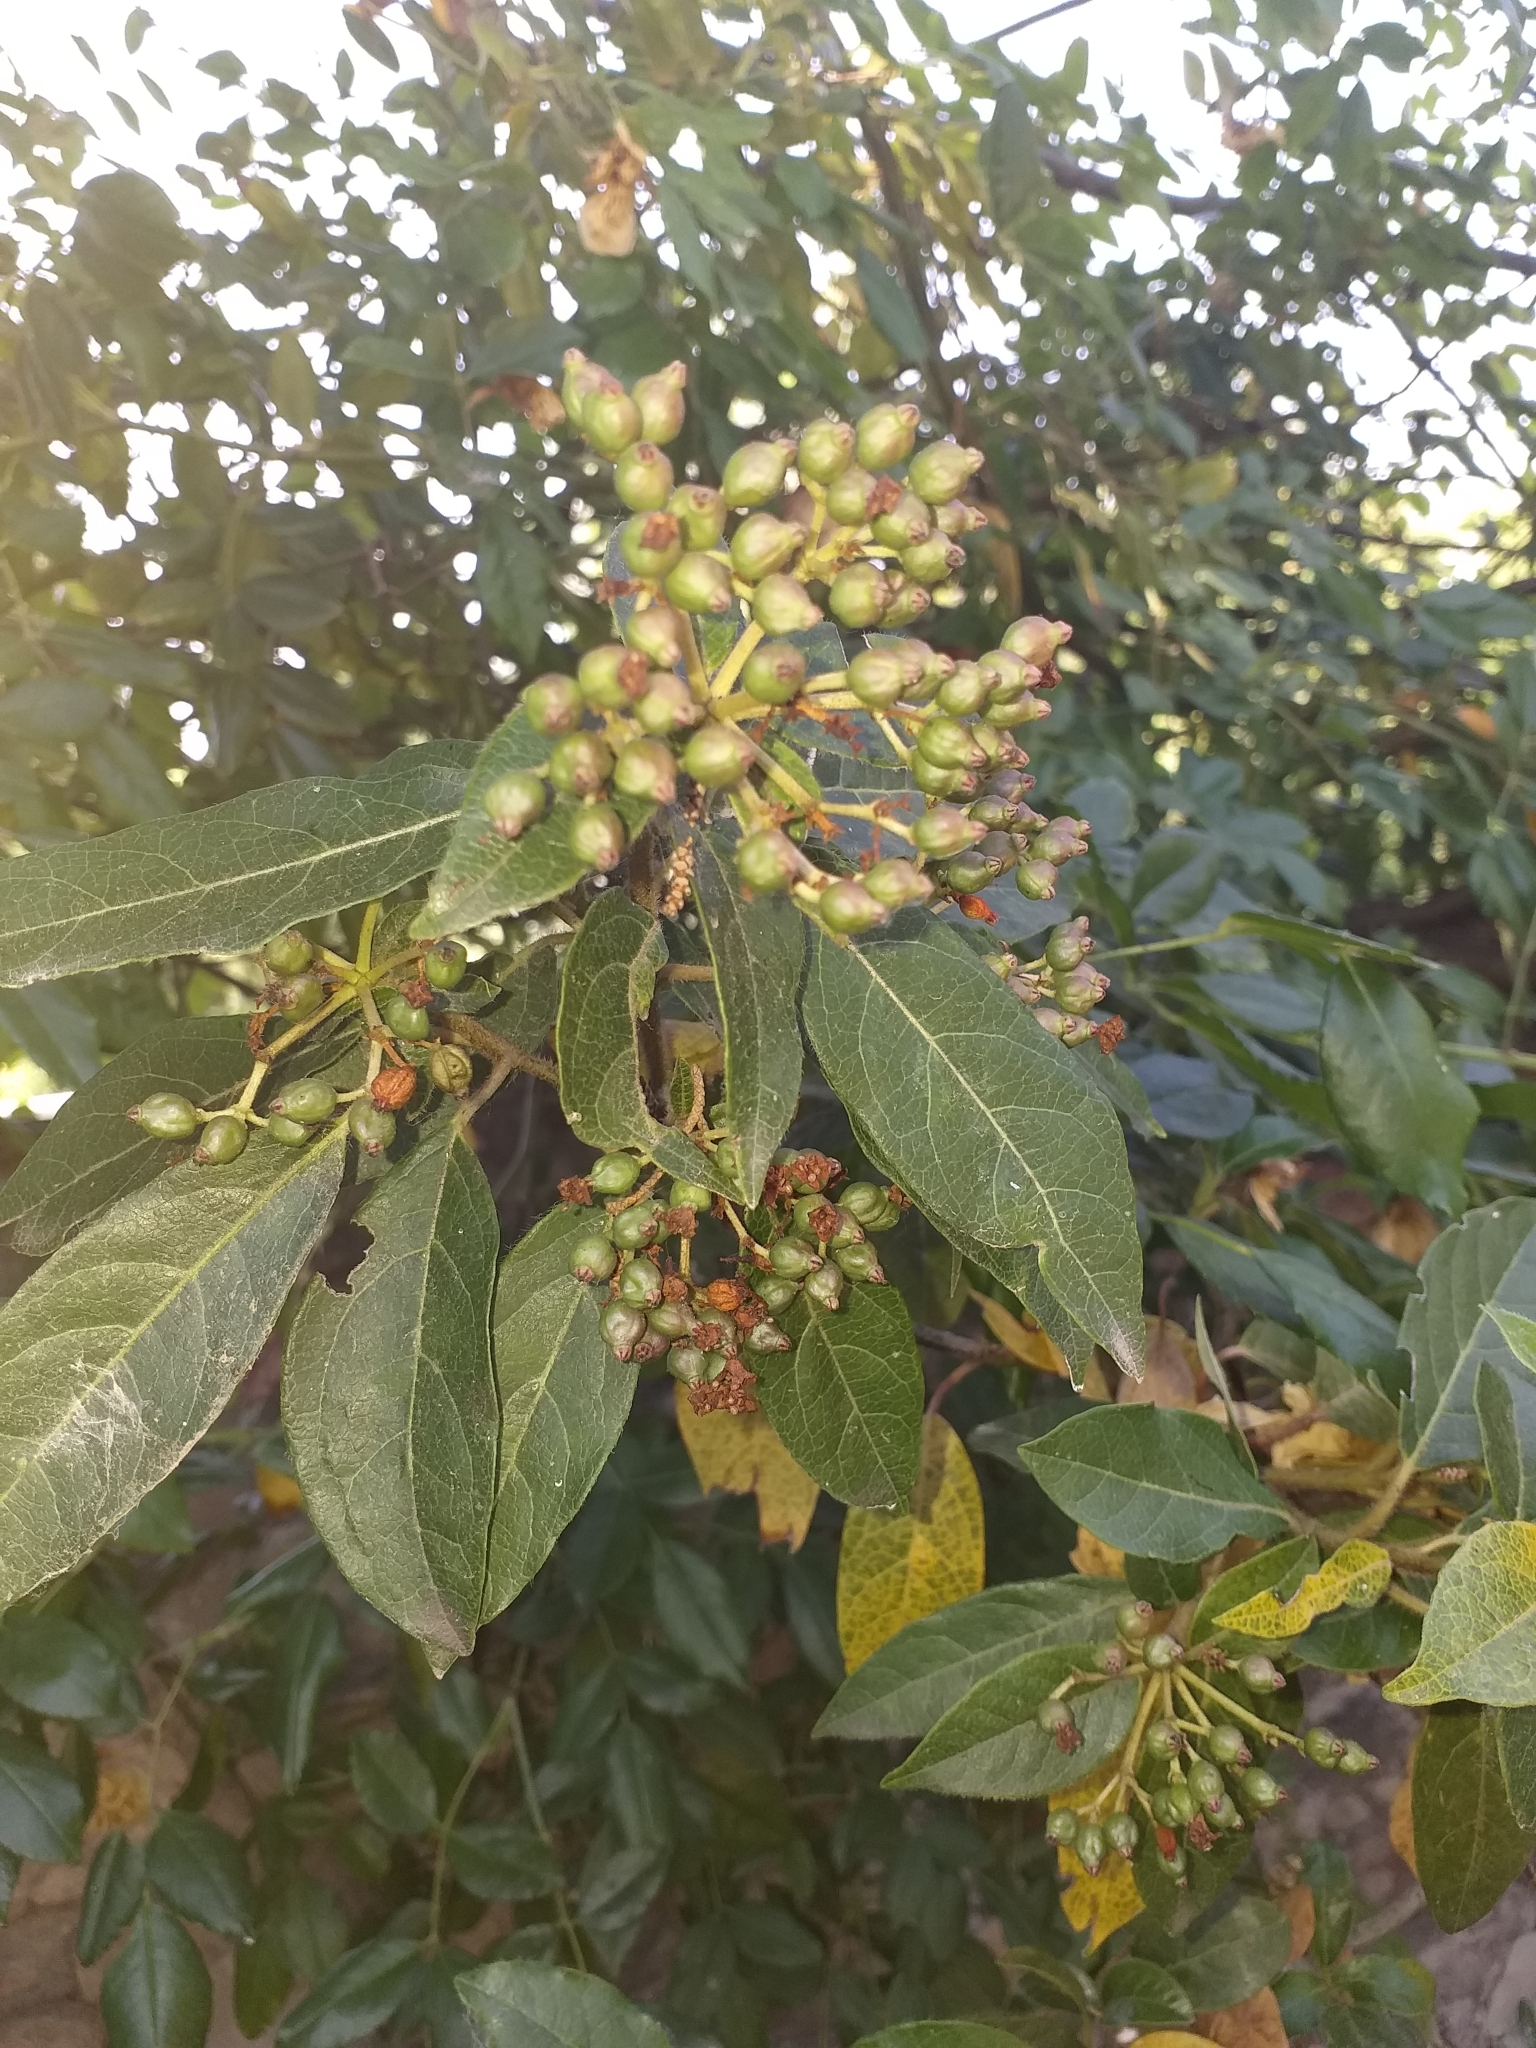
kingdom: Plantae
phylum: Tracheophyta
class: Magnoliopsida
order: Dipsacales
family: Viburnaceae
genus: Viburnum
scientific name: Viburnum tinus
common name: Laurustinus
